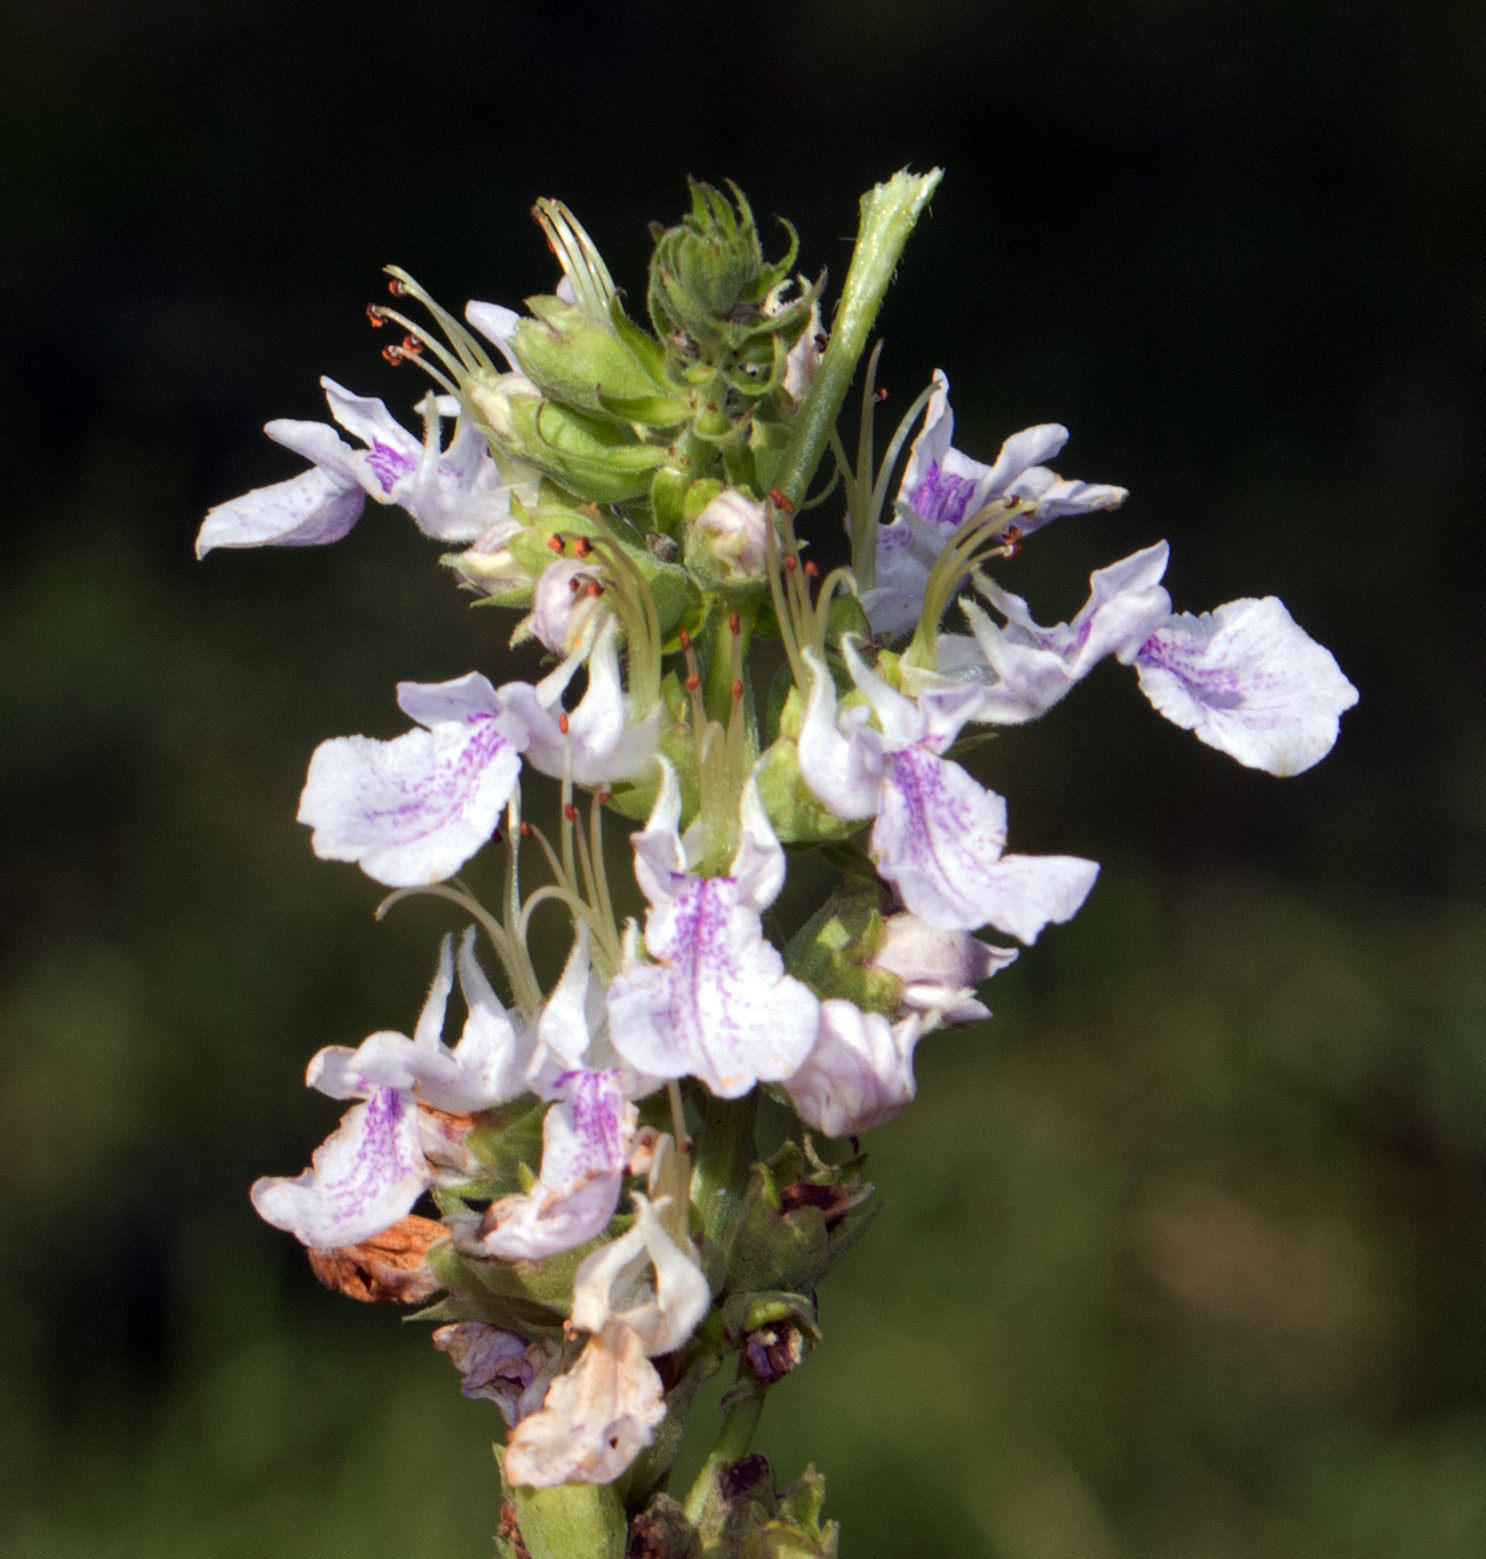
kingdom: Plantae
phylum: Tracheophyta
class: Magnoliopsida
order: Lamiales
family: Lamiaceae
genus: Teucrium
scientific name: Teucrium canadense
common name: American germander
